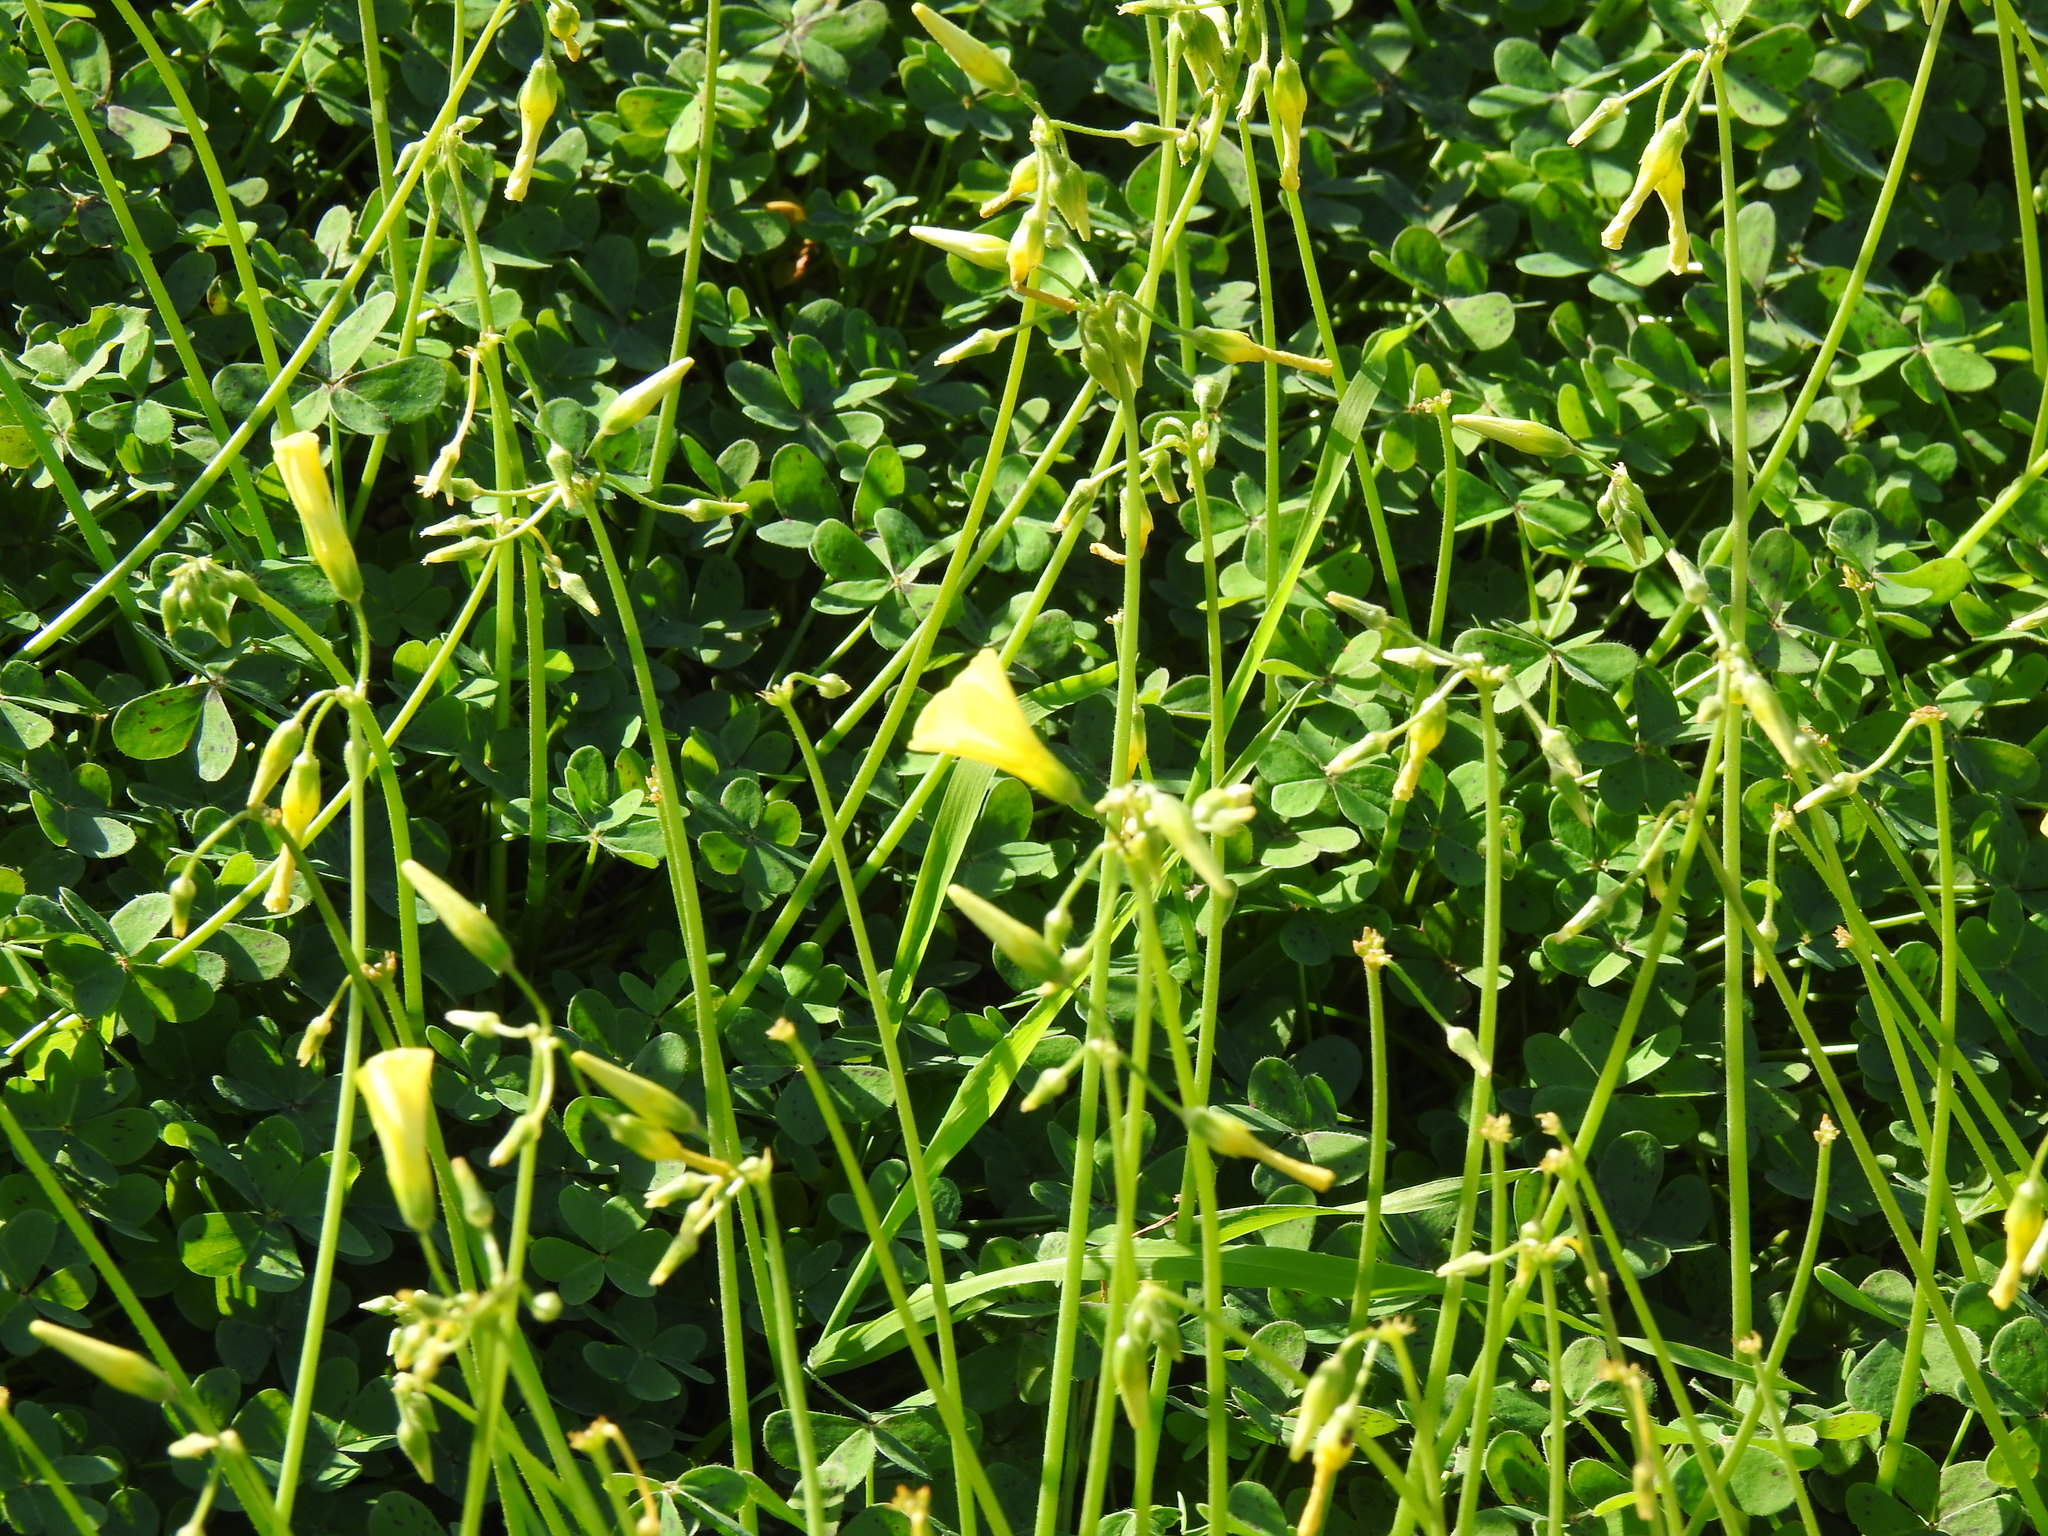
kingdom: Plantae
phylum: Tracheophyta
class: Magnoliopsida
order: Oxalidales
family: Oxalidaceae
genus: Oxalis
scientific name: Oxalis pes-caprae
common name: Bermuda-buttercup
